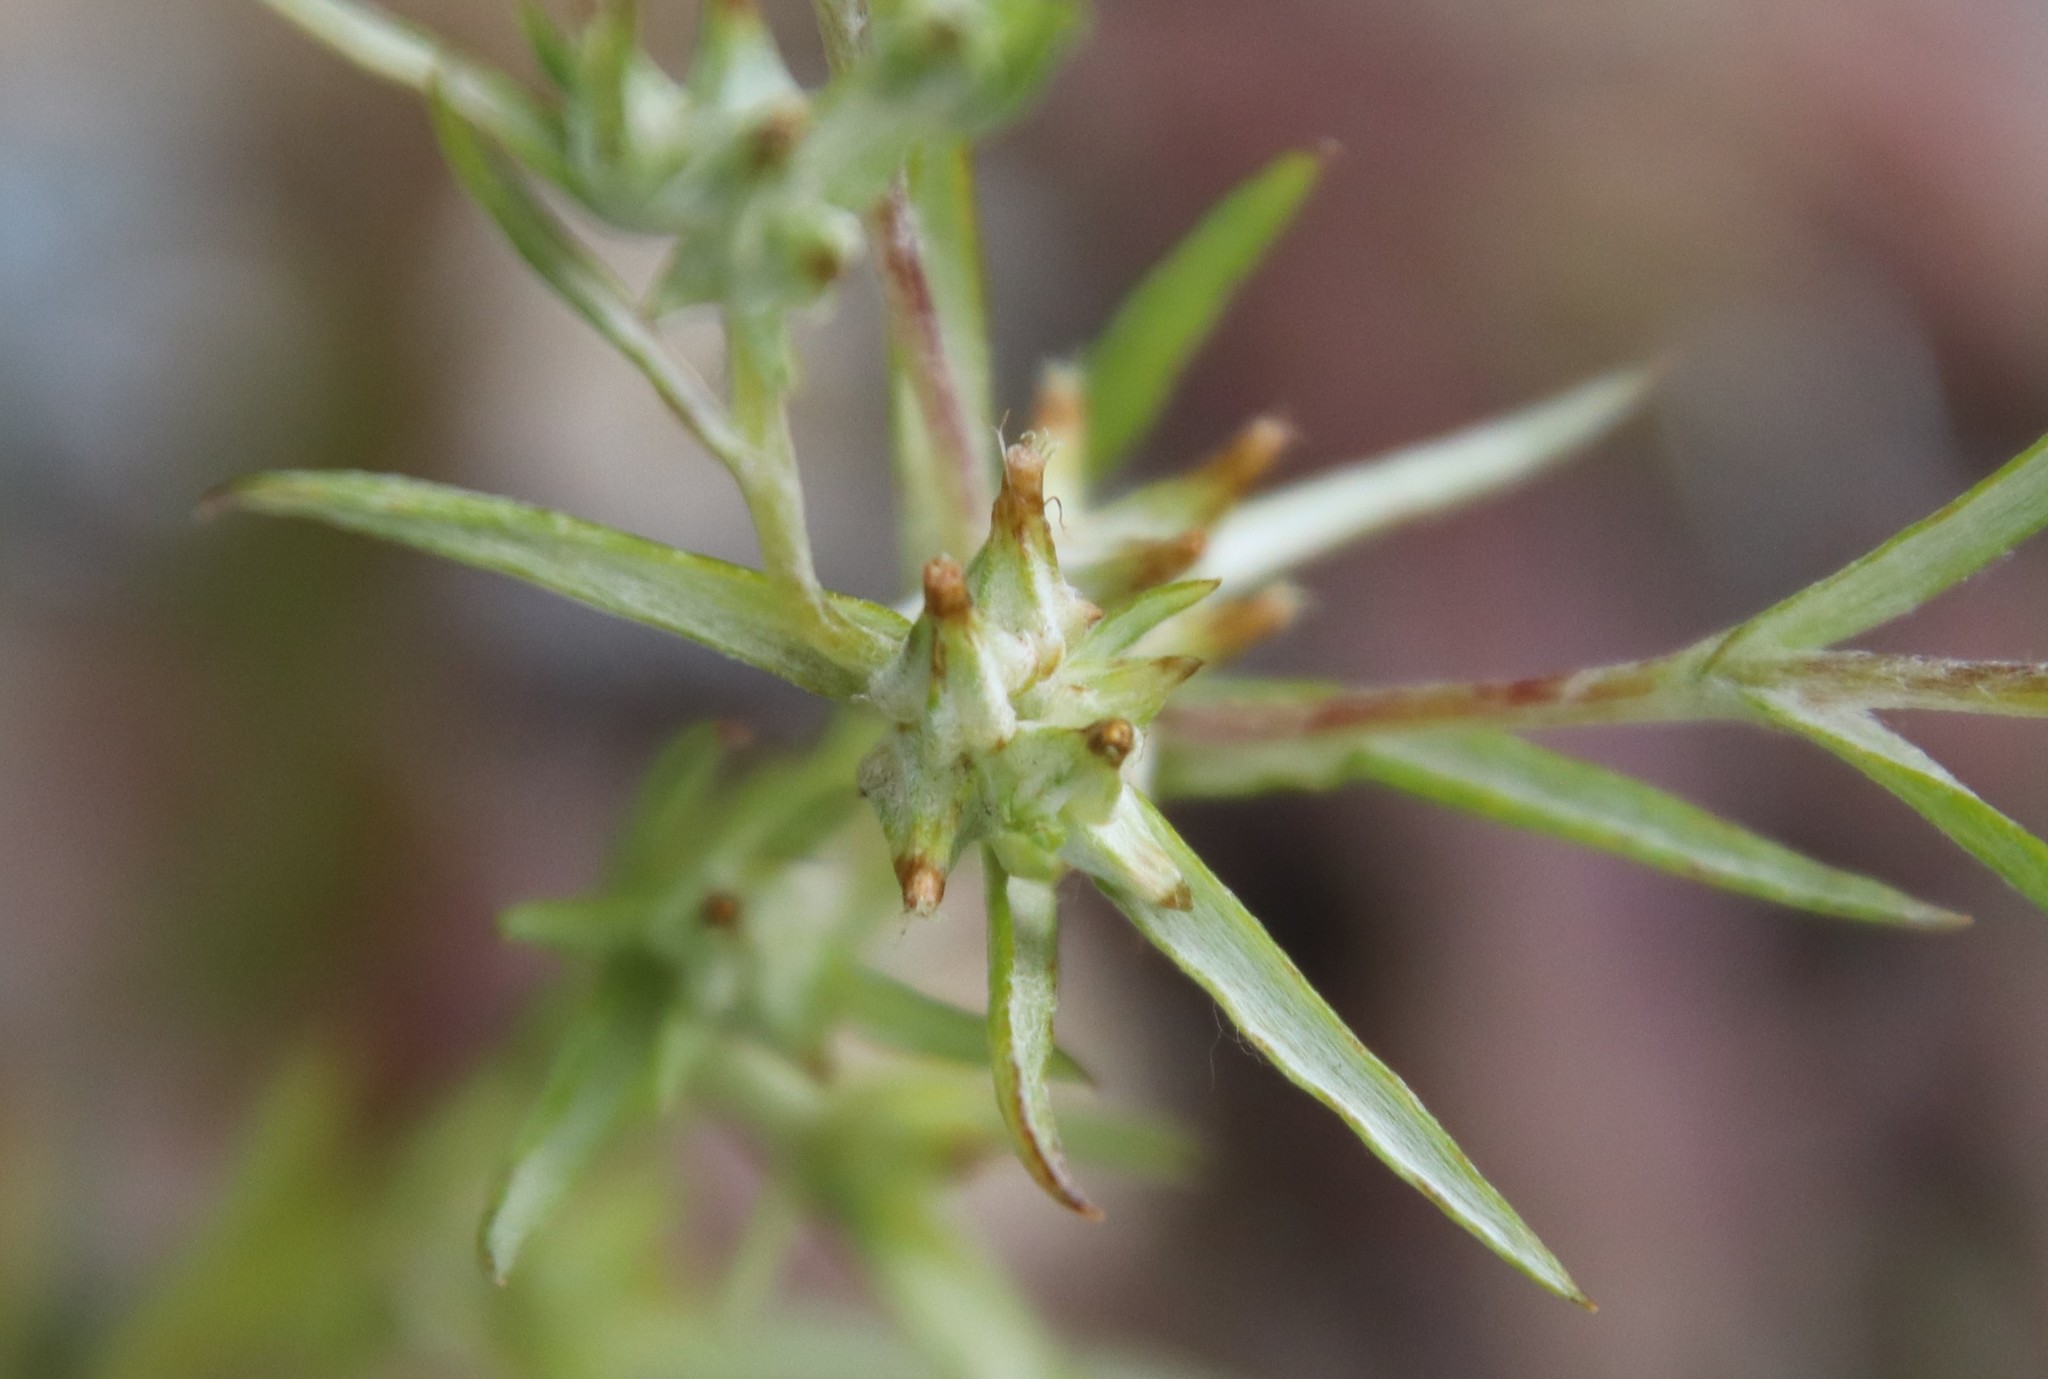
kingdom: Plantae
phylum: Tracheophyta
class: Magnoliopsida
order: Asterales
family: Asteraceae
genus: Logfia
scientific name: Logfia gallica
